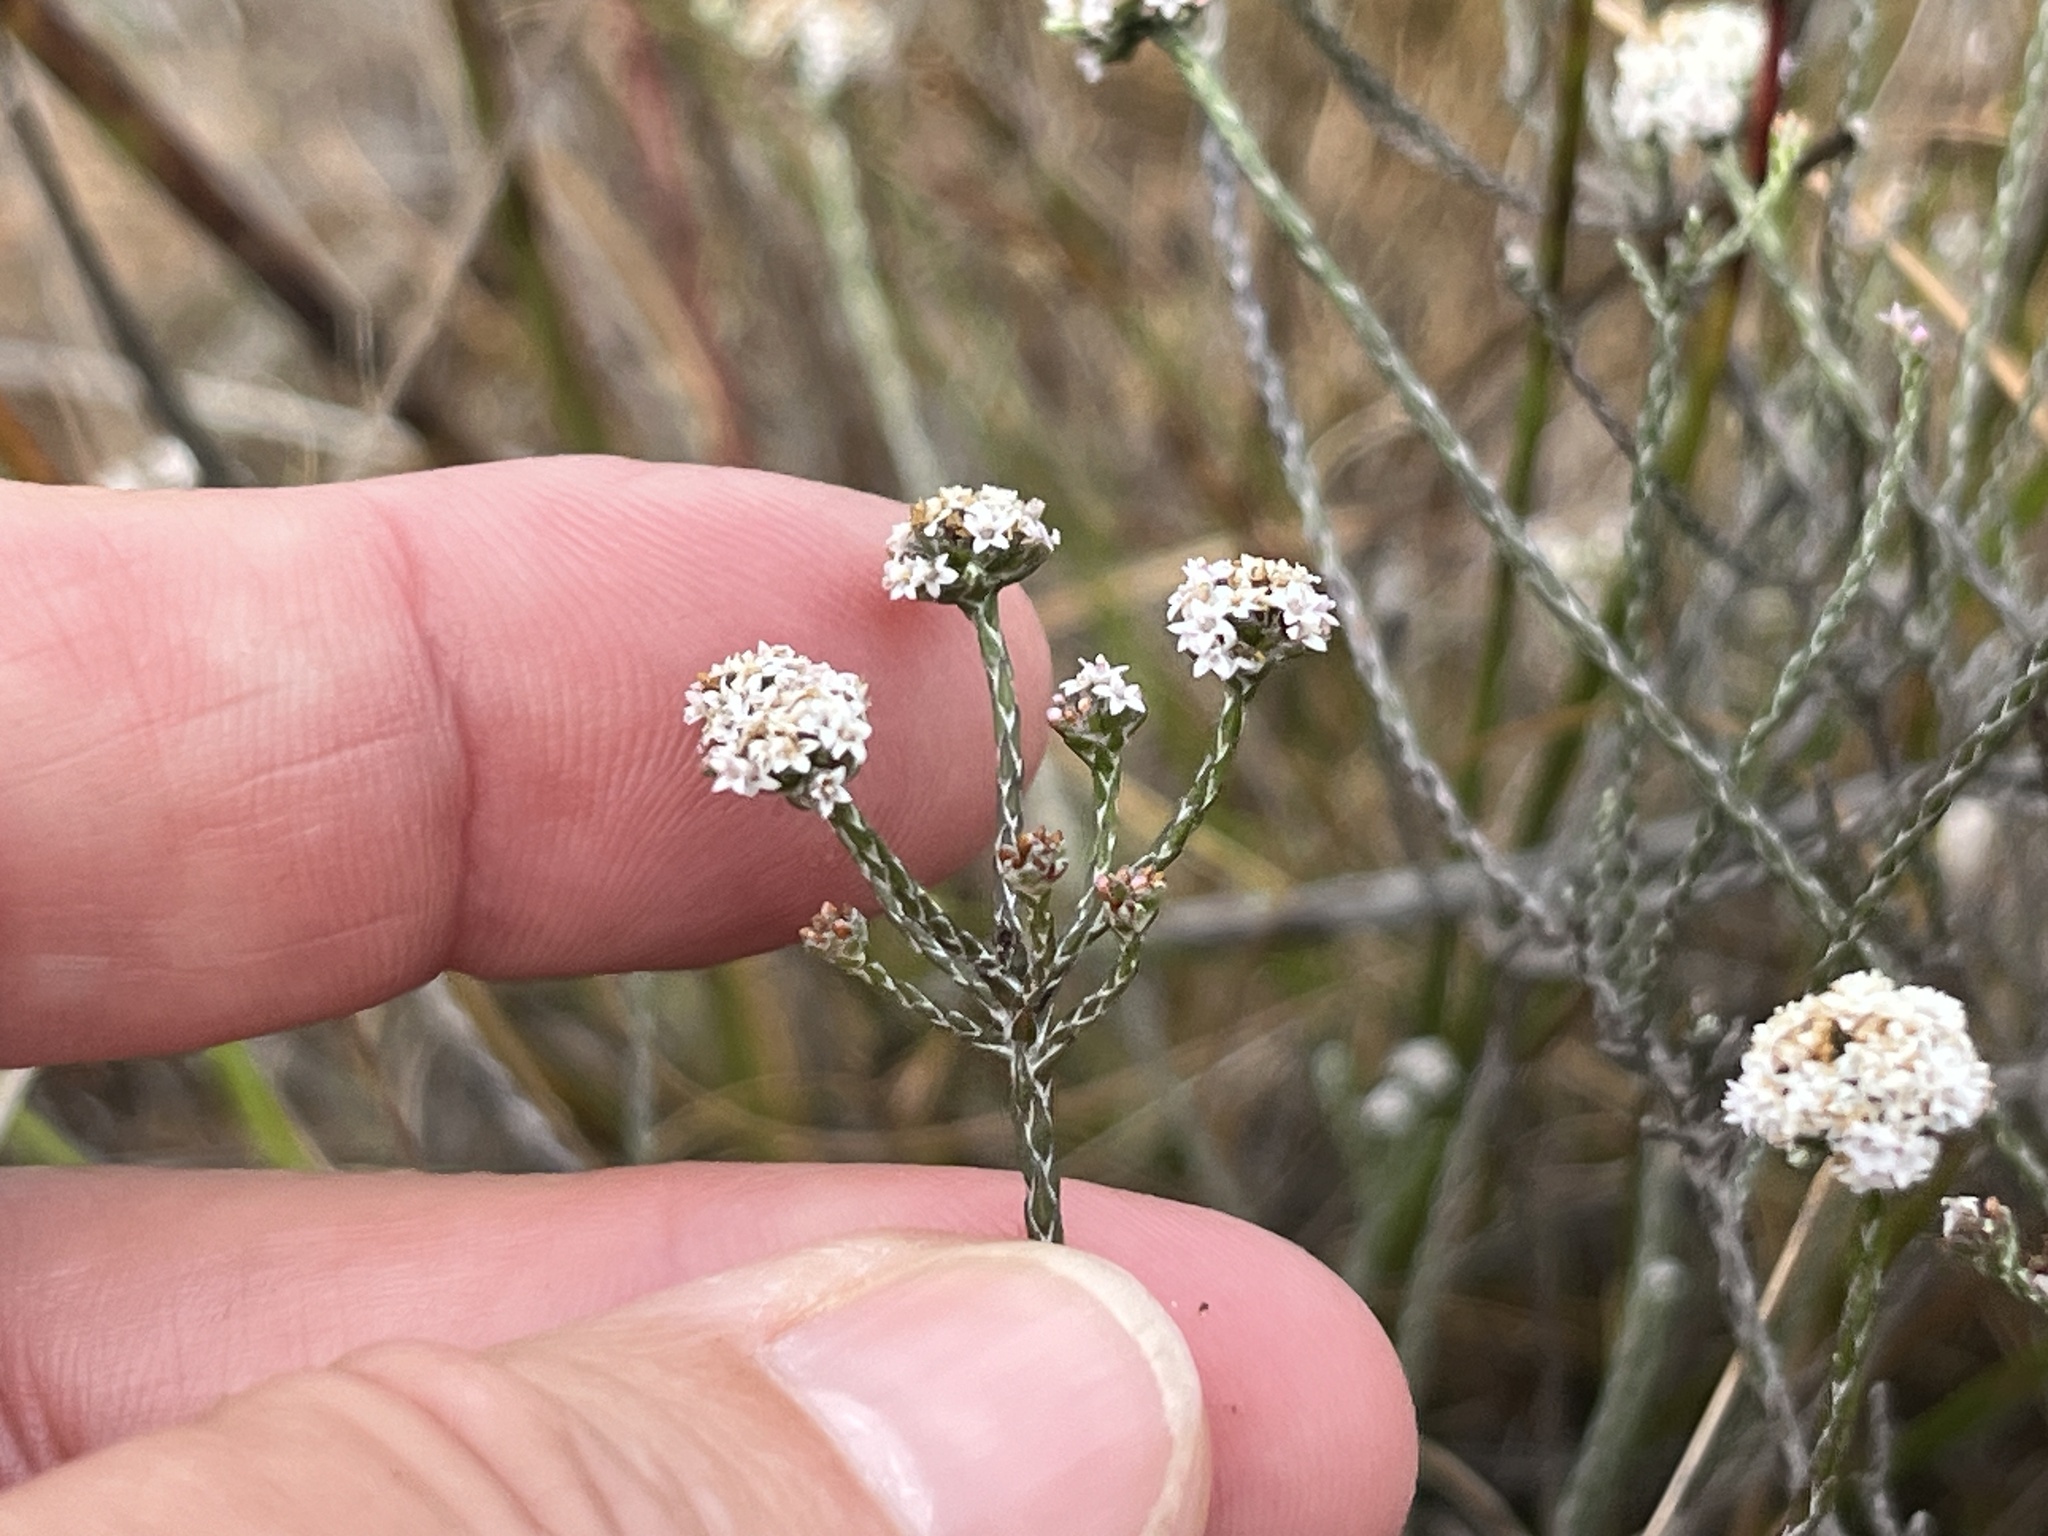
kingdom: Plantae
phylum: Tracheophyta
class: Magnoliopsida
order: Asterales
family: Asteraceae
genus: Stoebe
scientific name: Stoebe schultzii
